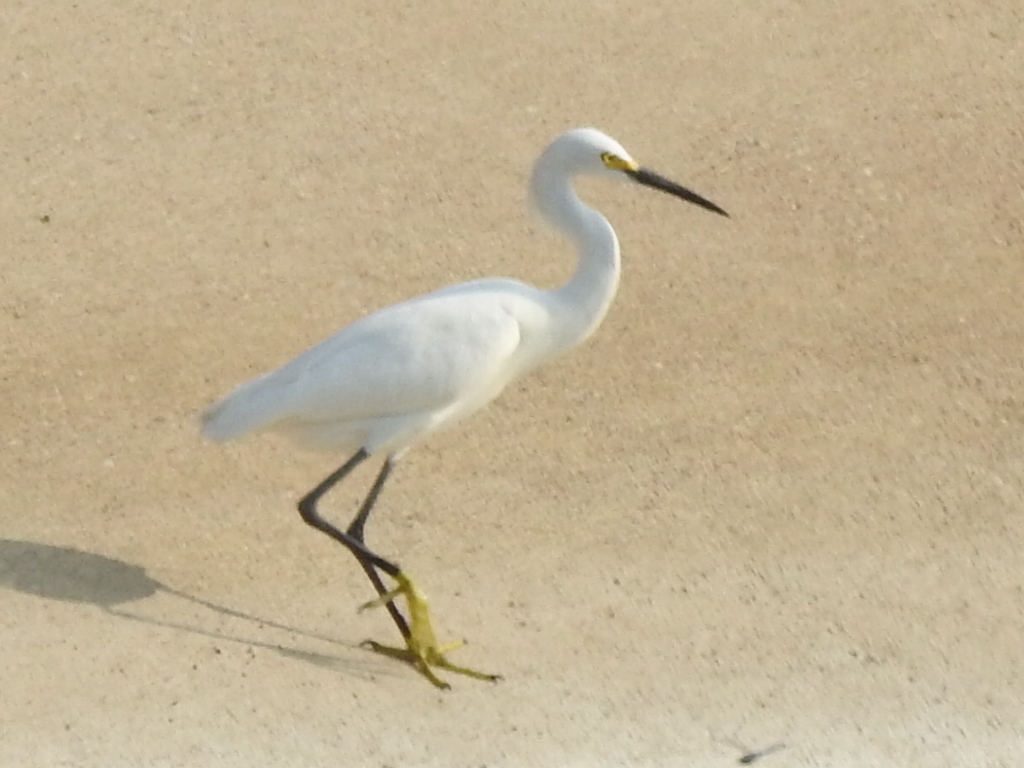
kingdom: Animalia
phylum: Chordata
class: Aves
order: Pelecaniformes
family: Ardeidae
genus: Egretta
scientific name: Egretta thula
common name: Snowy egret
